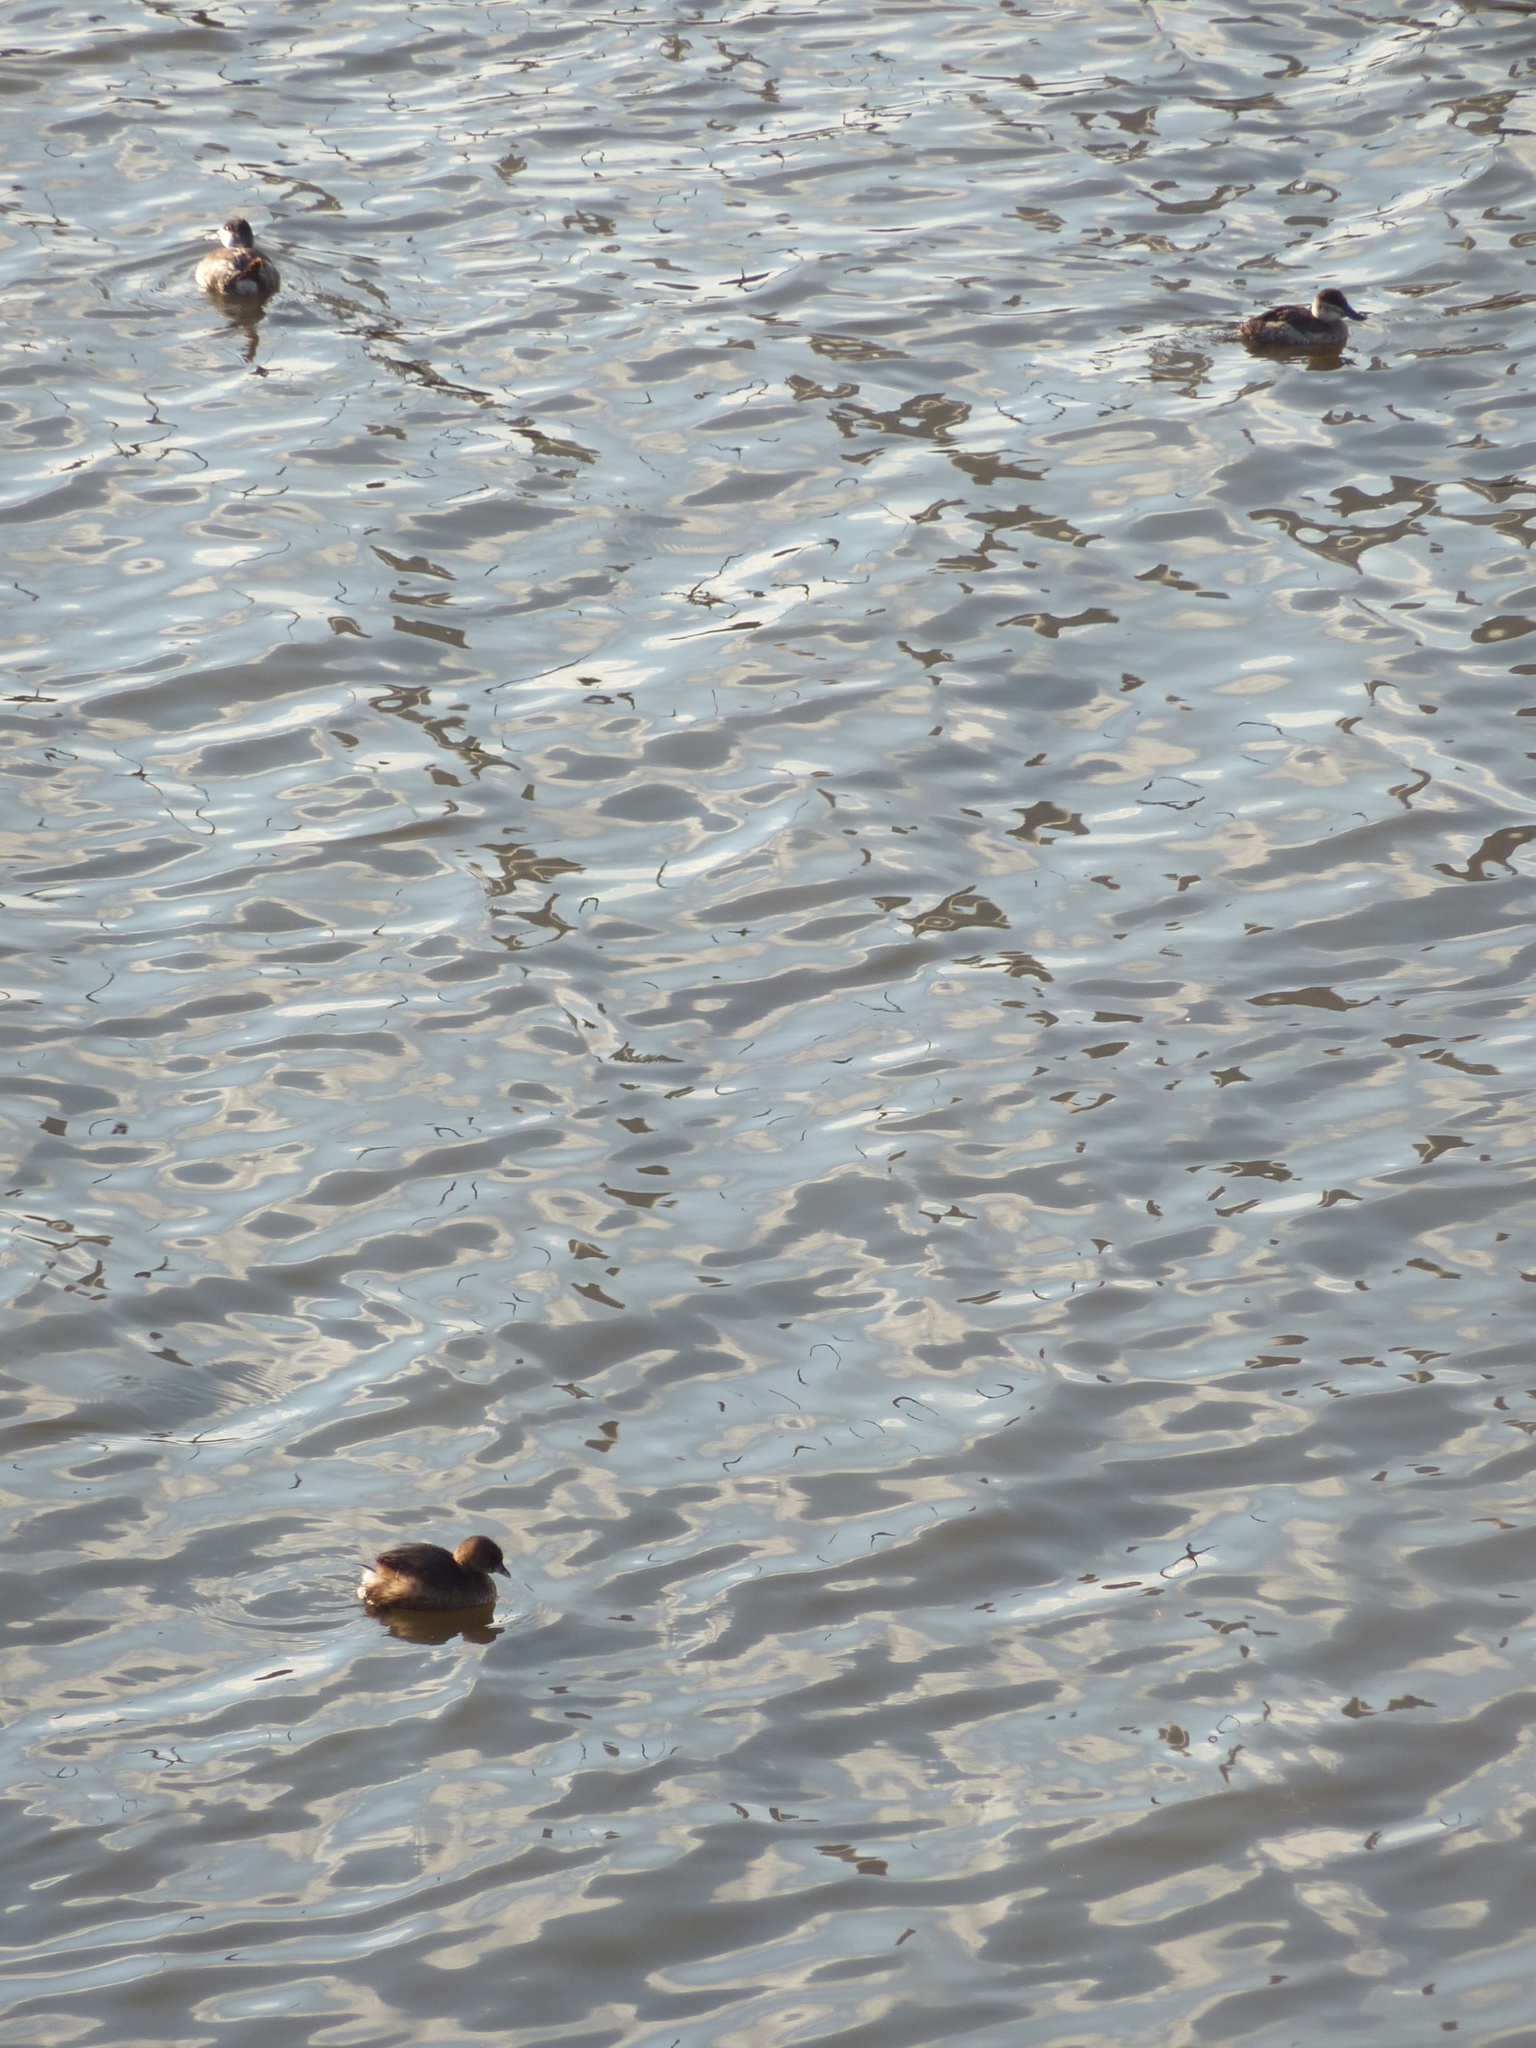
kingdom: Animalia
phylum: Chordata
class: Aves
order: Anseriformes
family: Anatidae
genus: Oxyura
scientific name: Oxyura jamaicensis
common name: Ruddy duck
